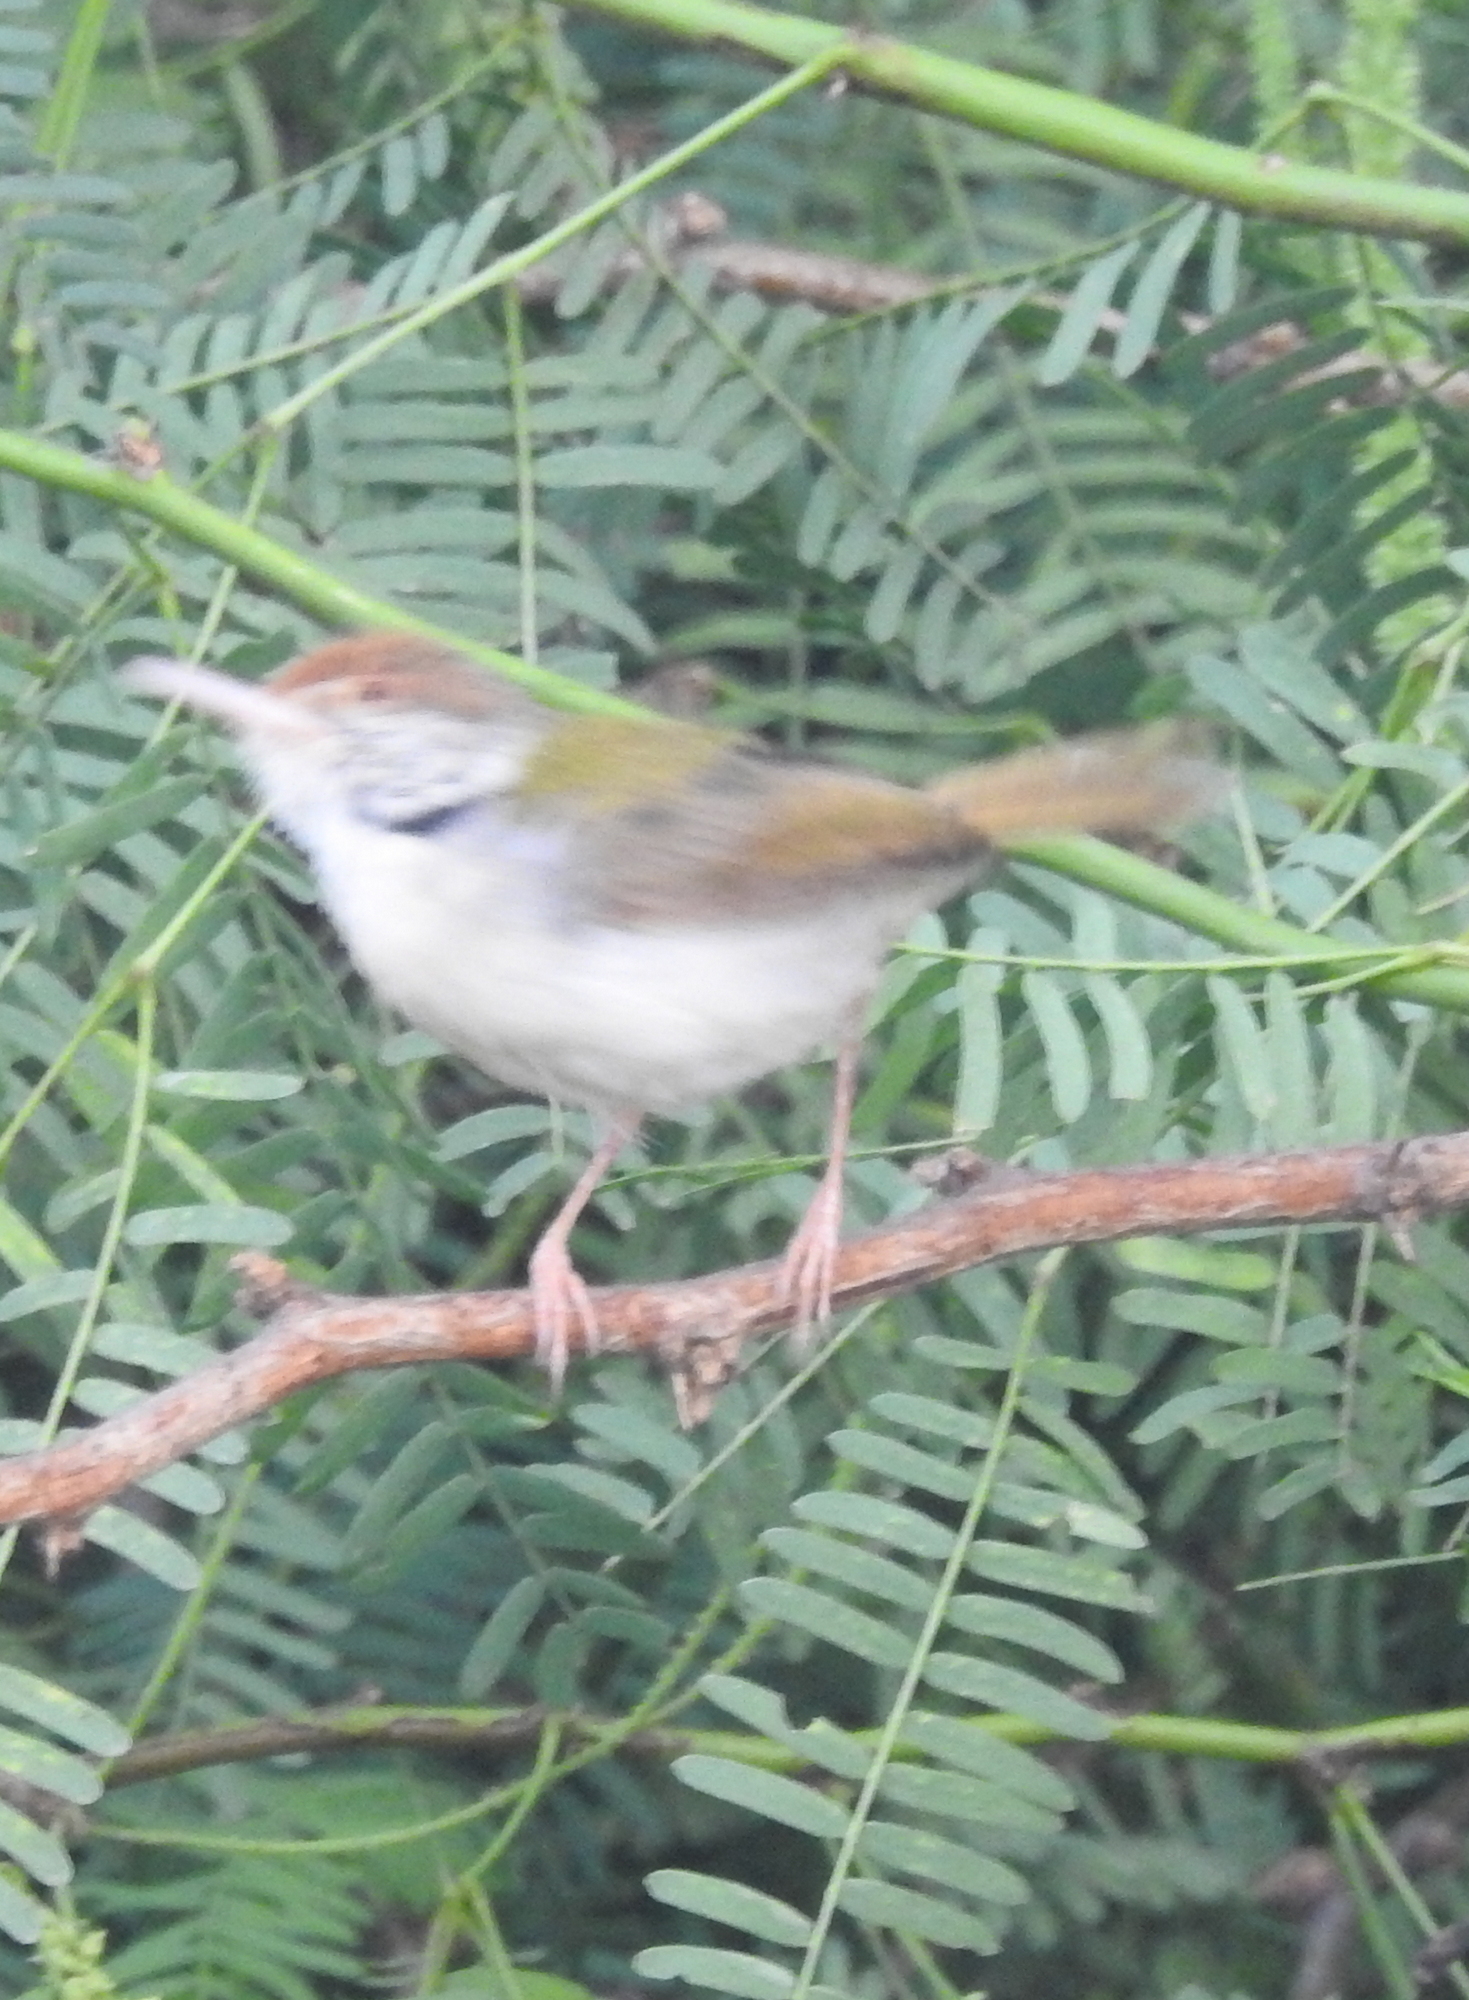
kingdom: Animalia
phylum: Chordata
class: Aves
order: Passeriformes
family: Cisticolidae
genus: Orthotomus
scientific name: Orthotomus sutorius
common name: Common tailorbird
